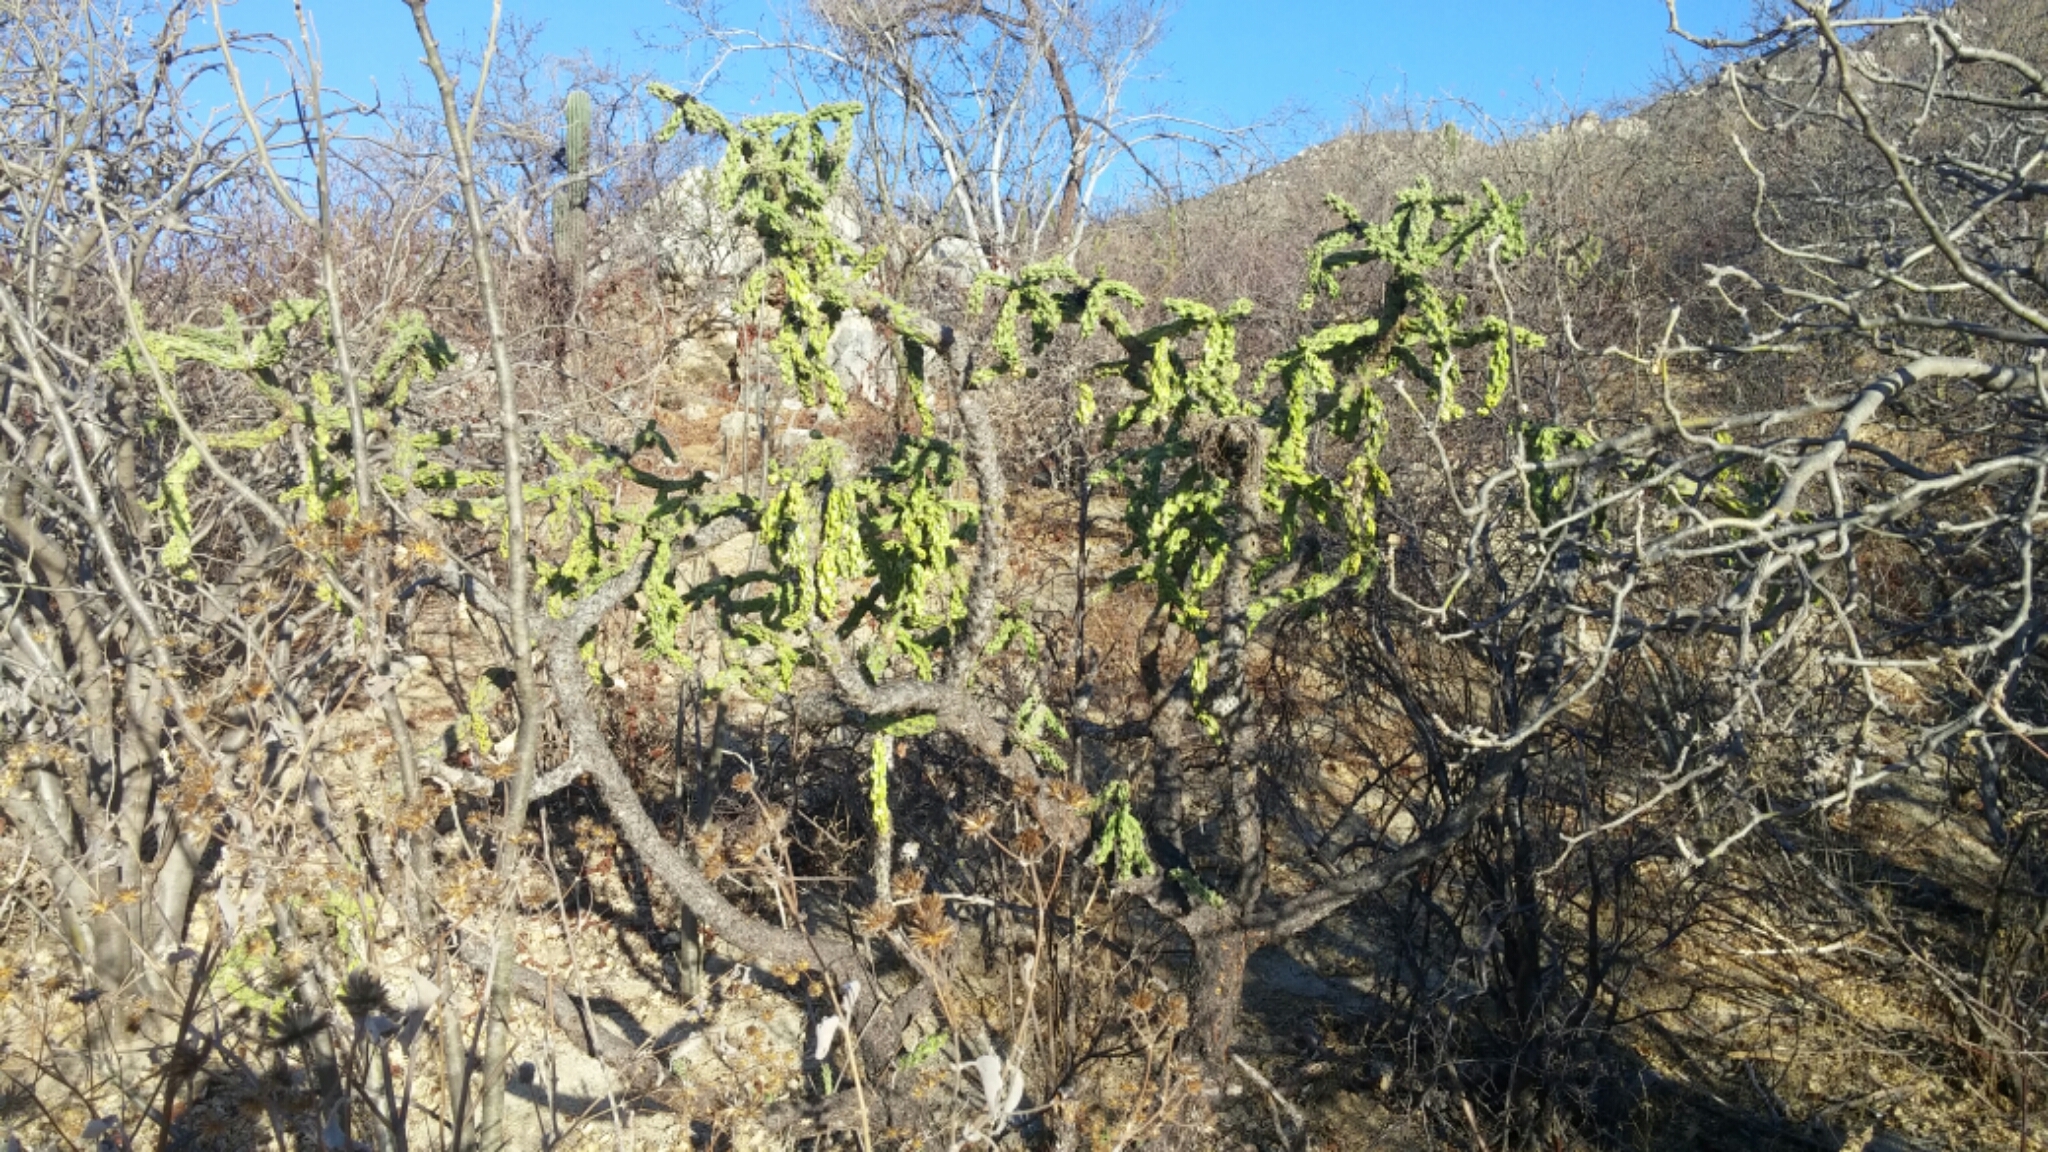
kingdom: Plantae
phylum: Tracheophyta
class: Magnoliopsida
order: Caryophyllales
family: Cactaceae
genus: Cylindropuntia
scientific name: Cylindropuntia cholla
